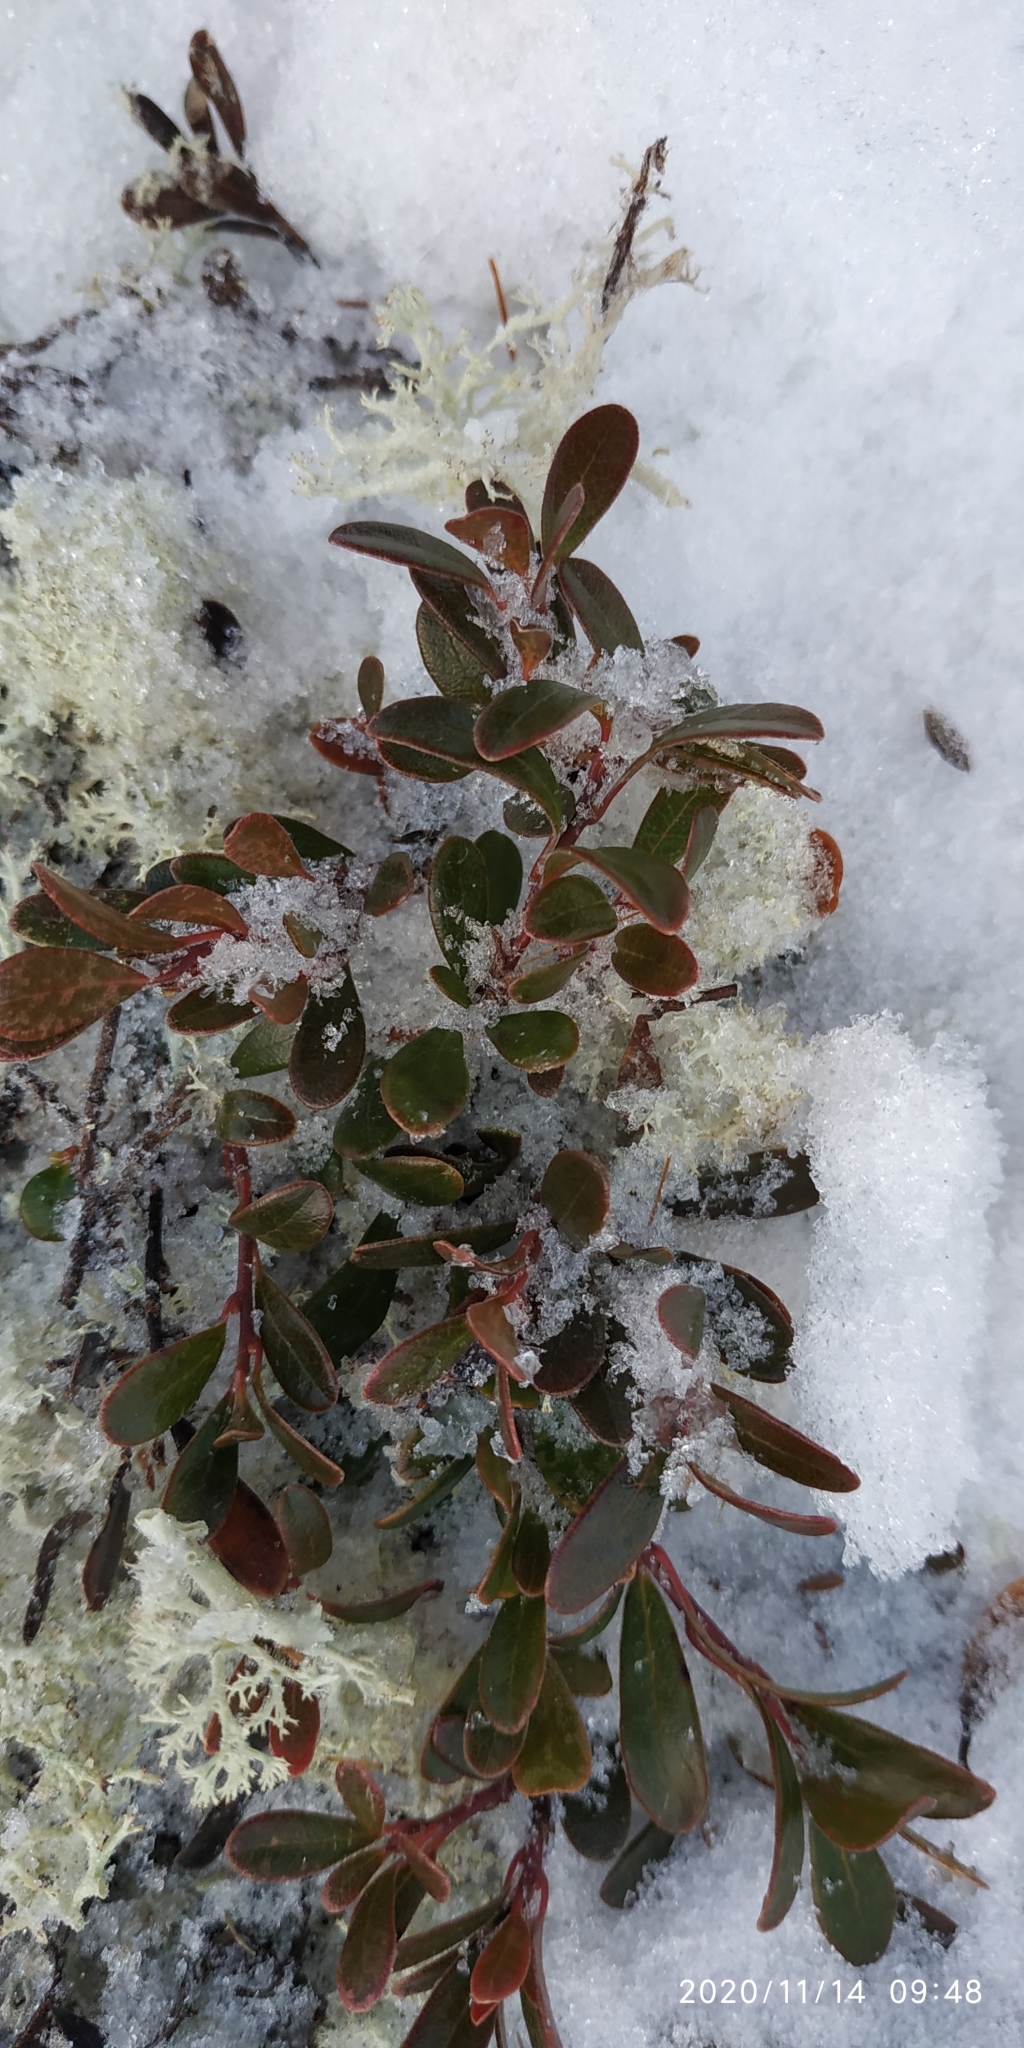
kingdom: Plantae
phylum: Tracheophyta
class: Magnoliopsida
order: Ericales
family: Ericaceae
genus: Arctostaphylos
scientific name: Arctostaphylos uva-ursi
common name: Bearberry
